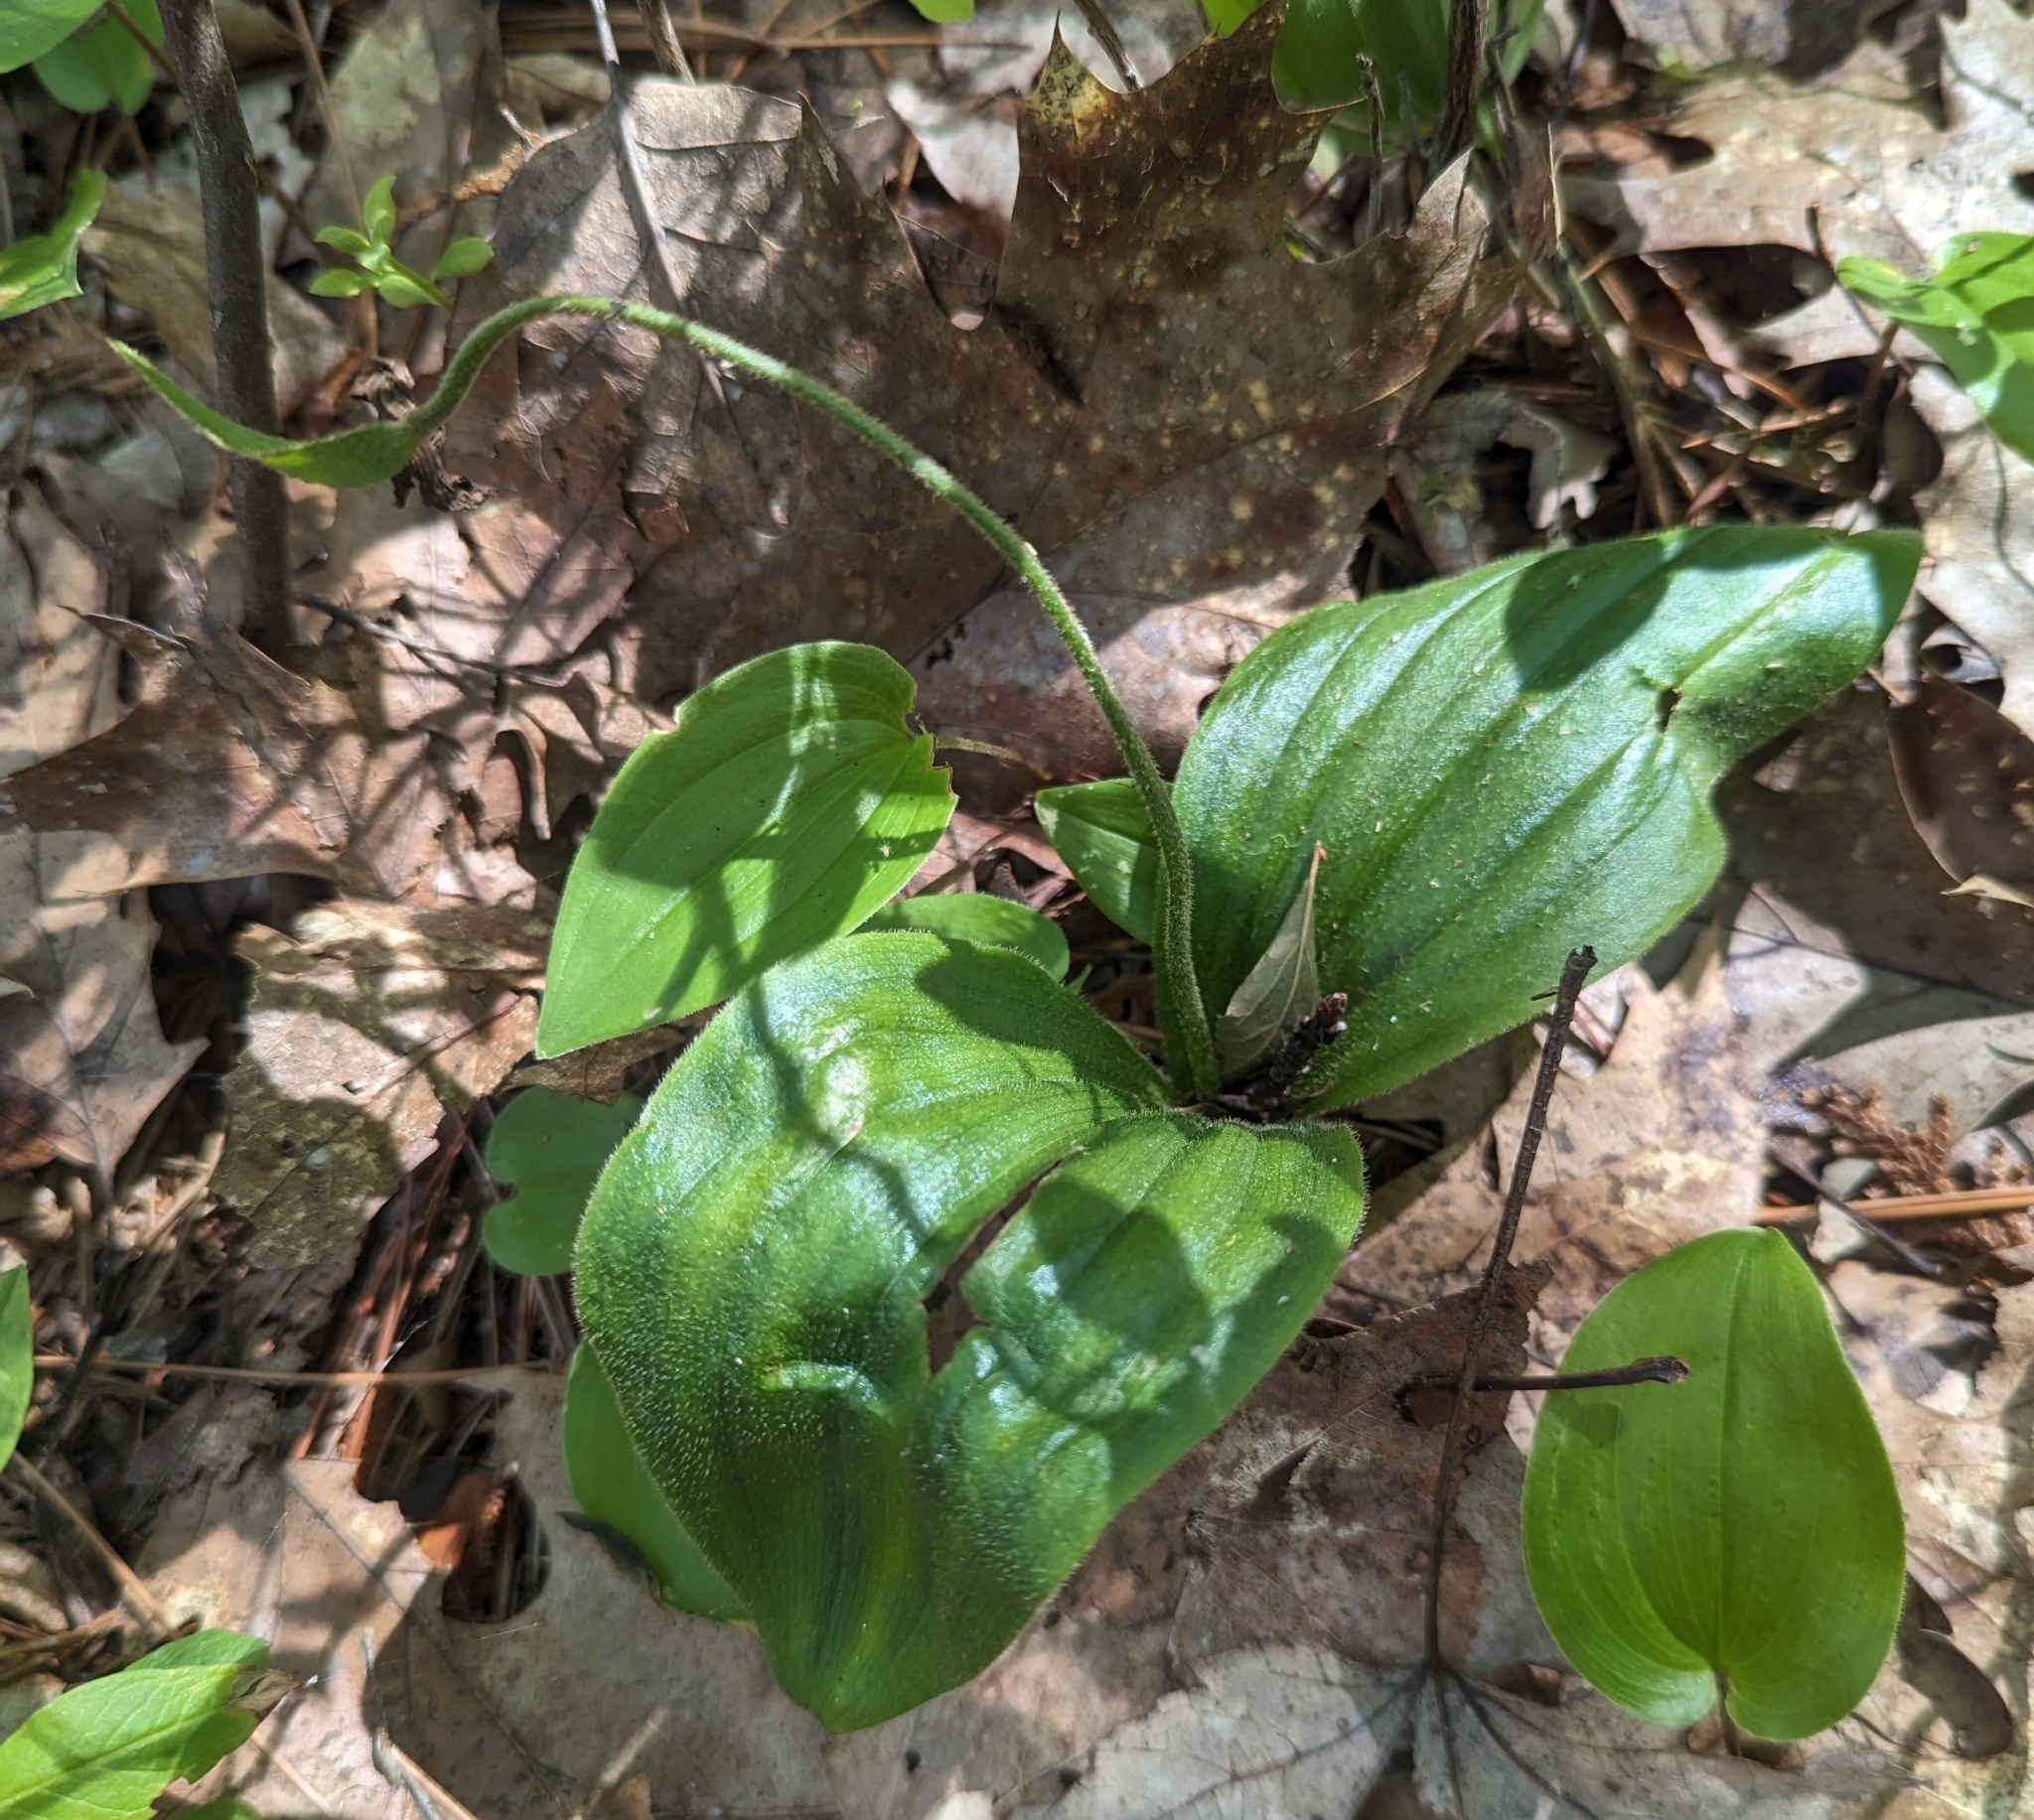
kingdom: Plantae
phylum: Tracheophyta
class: Liliopsida
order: Asparagales
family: Orchidaceae
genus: Cypripedium
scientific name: Cypripedium acaule
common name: Pink lady's-slipper
